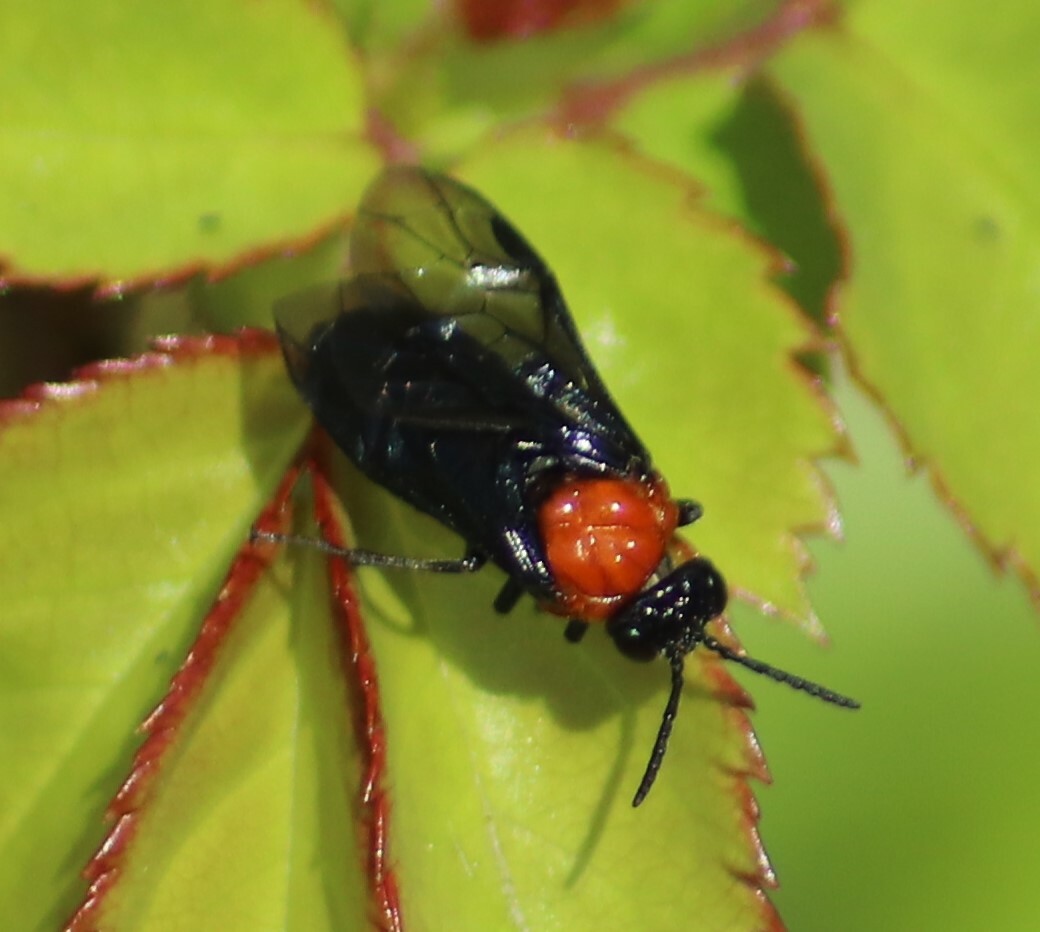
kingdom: Animalia
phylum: Arthropoda
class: Insecta
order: Hymenoptera
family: Tenthredinidae
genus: Tethida
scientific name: Tethida barda
